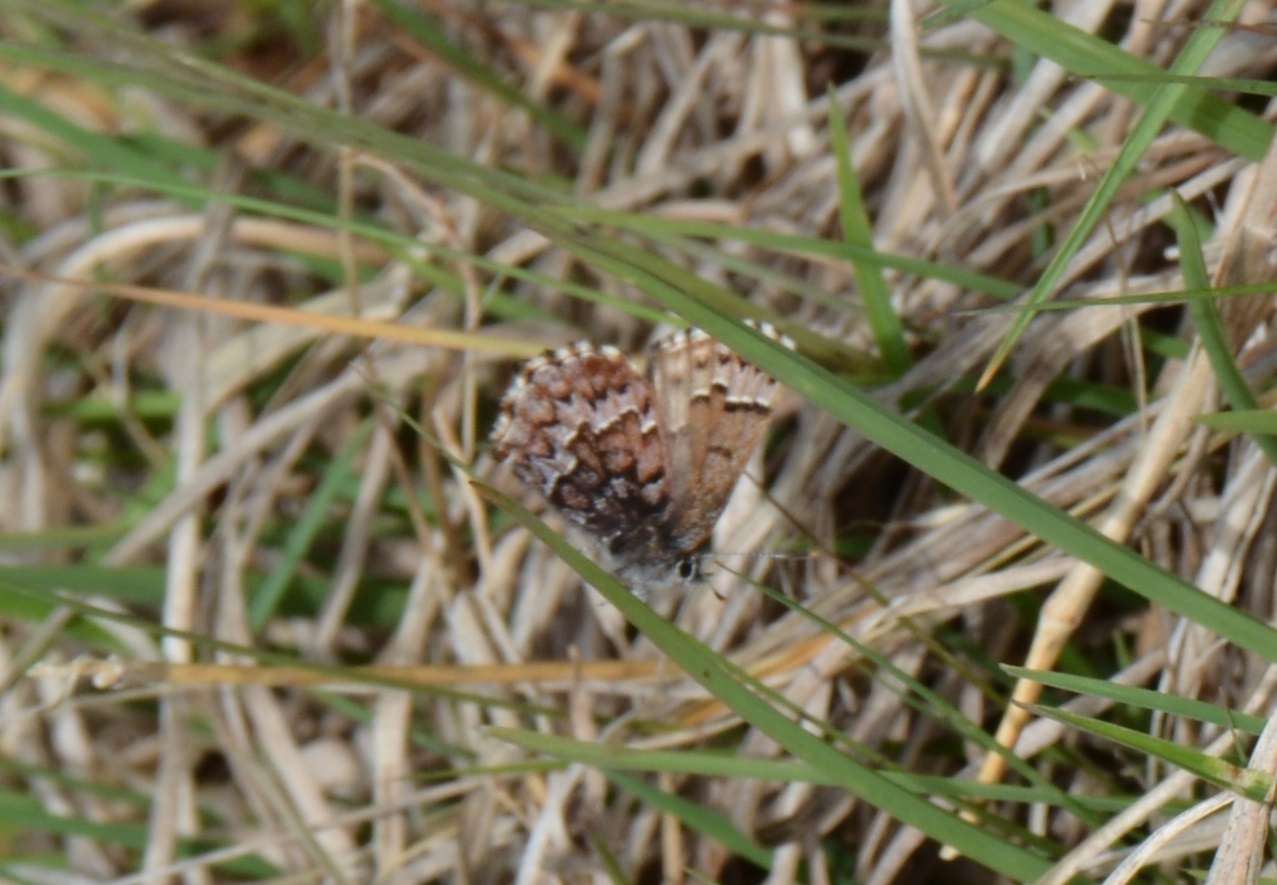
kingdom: Animalia
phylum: Arthropoda
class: Insecta
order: Lepidoptera
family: Lycaenidae
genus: Incisalia
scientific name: Incisalia niphon
